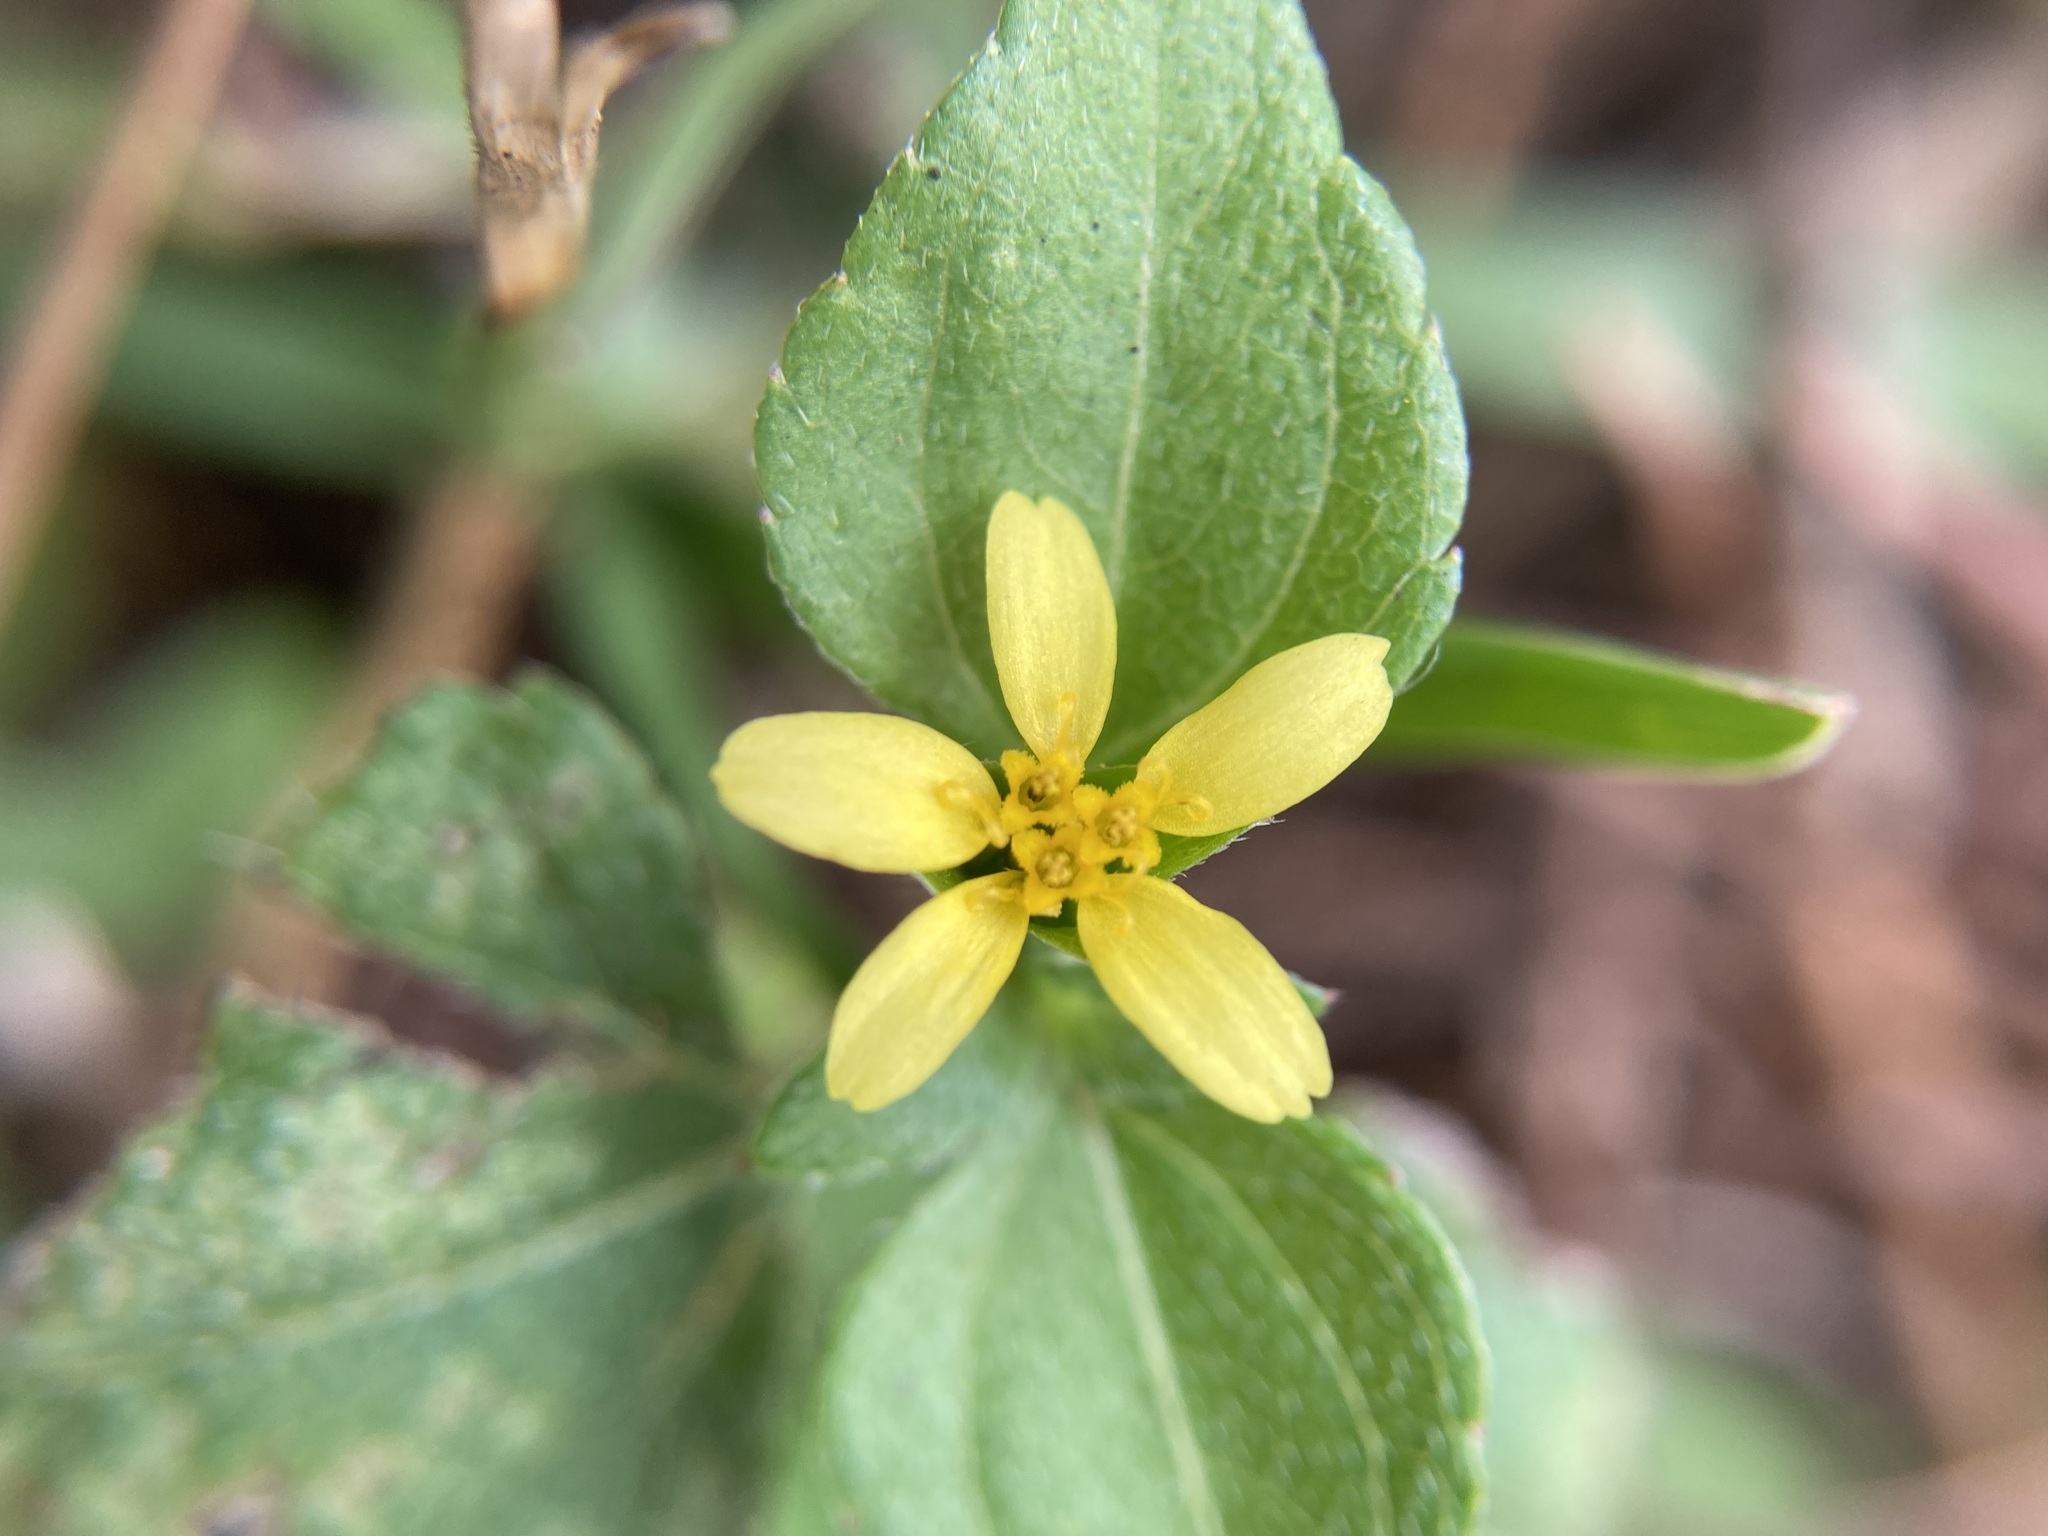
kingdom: Plantae
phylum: Tracheophyta
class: Magnoliopsida
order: Asterales
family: Asteraceae
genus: Calyptocarpus
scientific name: Calyptocarpus vialis
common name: Straggler daisy
